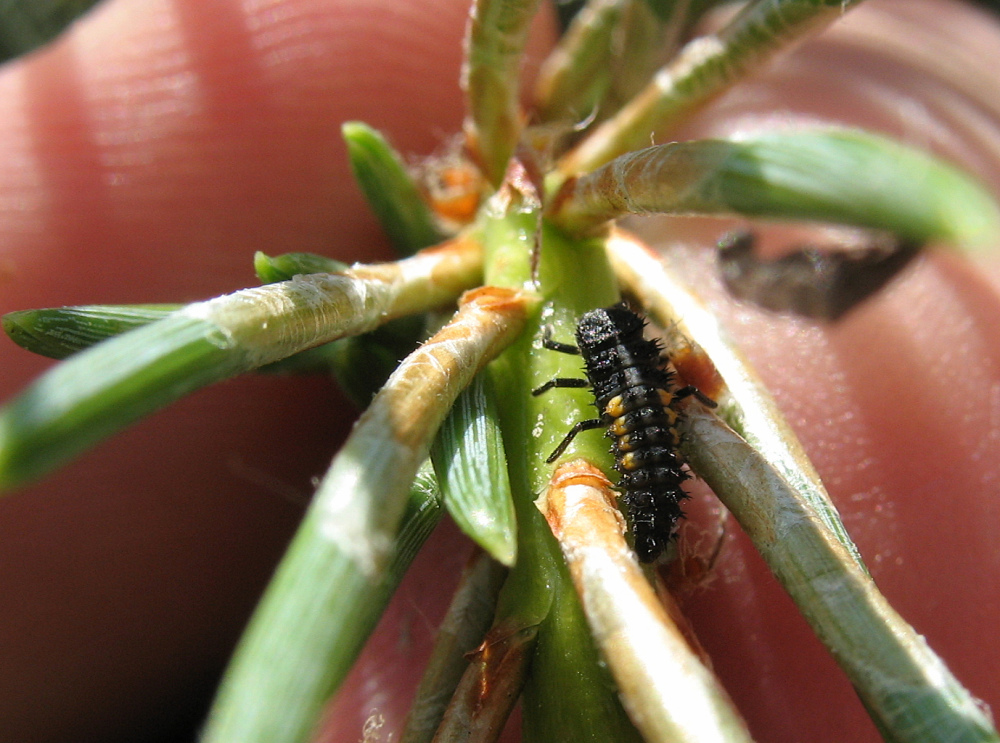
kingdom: Animalia
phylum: Arthropoda
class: Insecta
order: Coleoptera
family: Coccinellidae
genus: Harmonia
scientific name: Harmonia quadripunctata
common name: Cream-streaked ladybird
